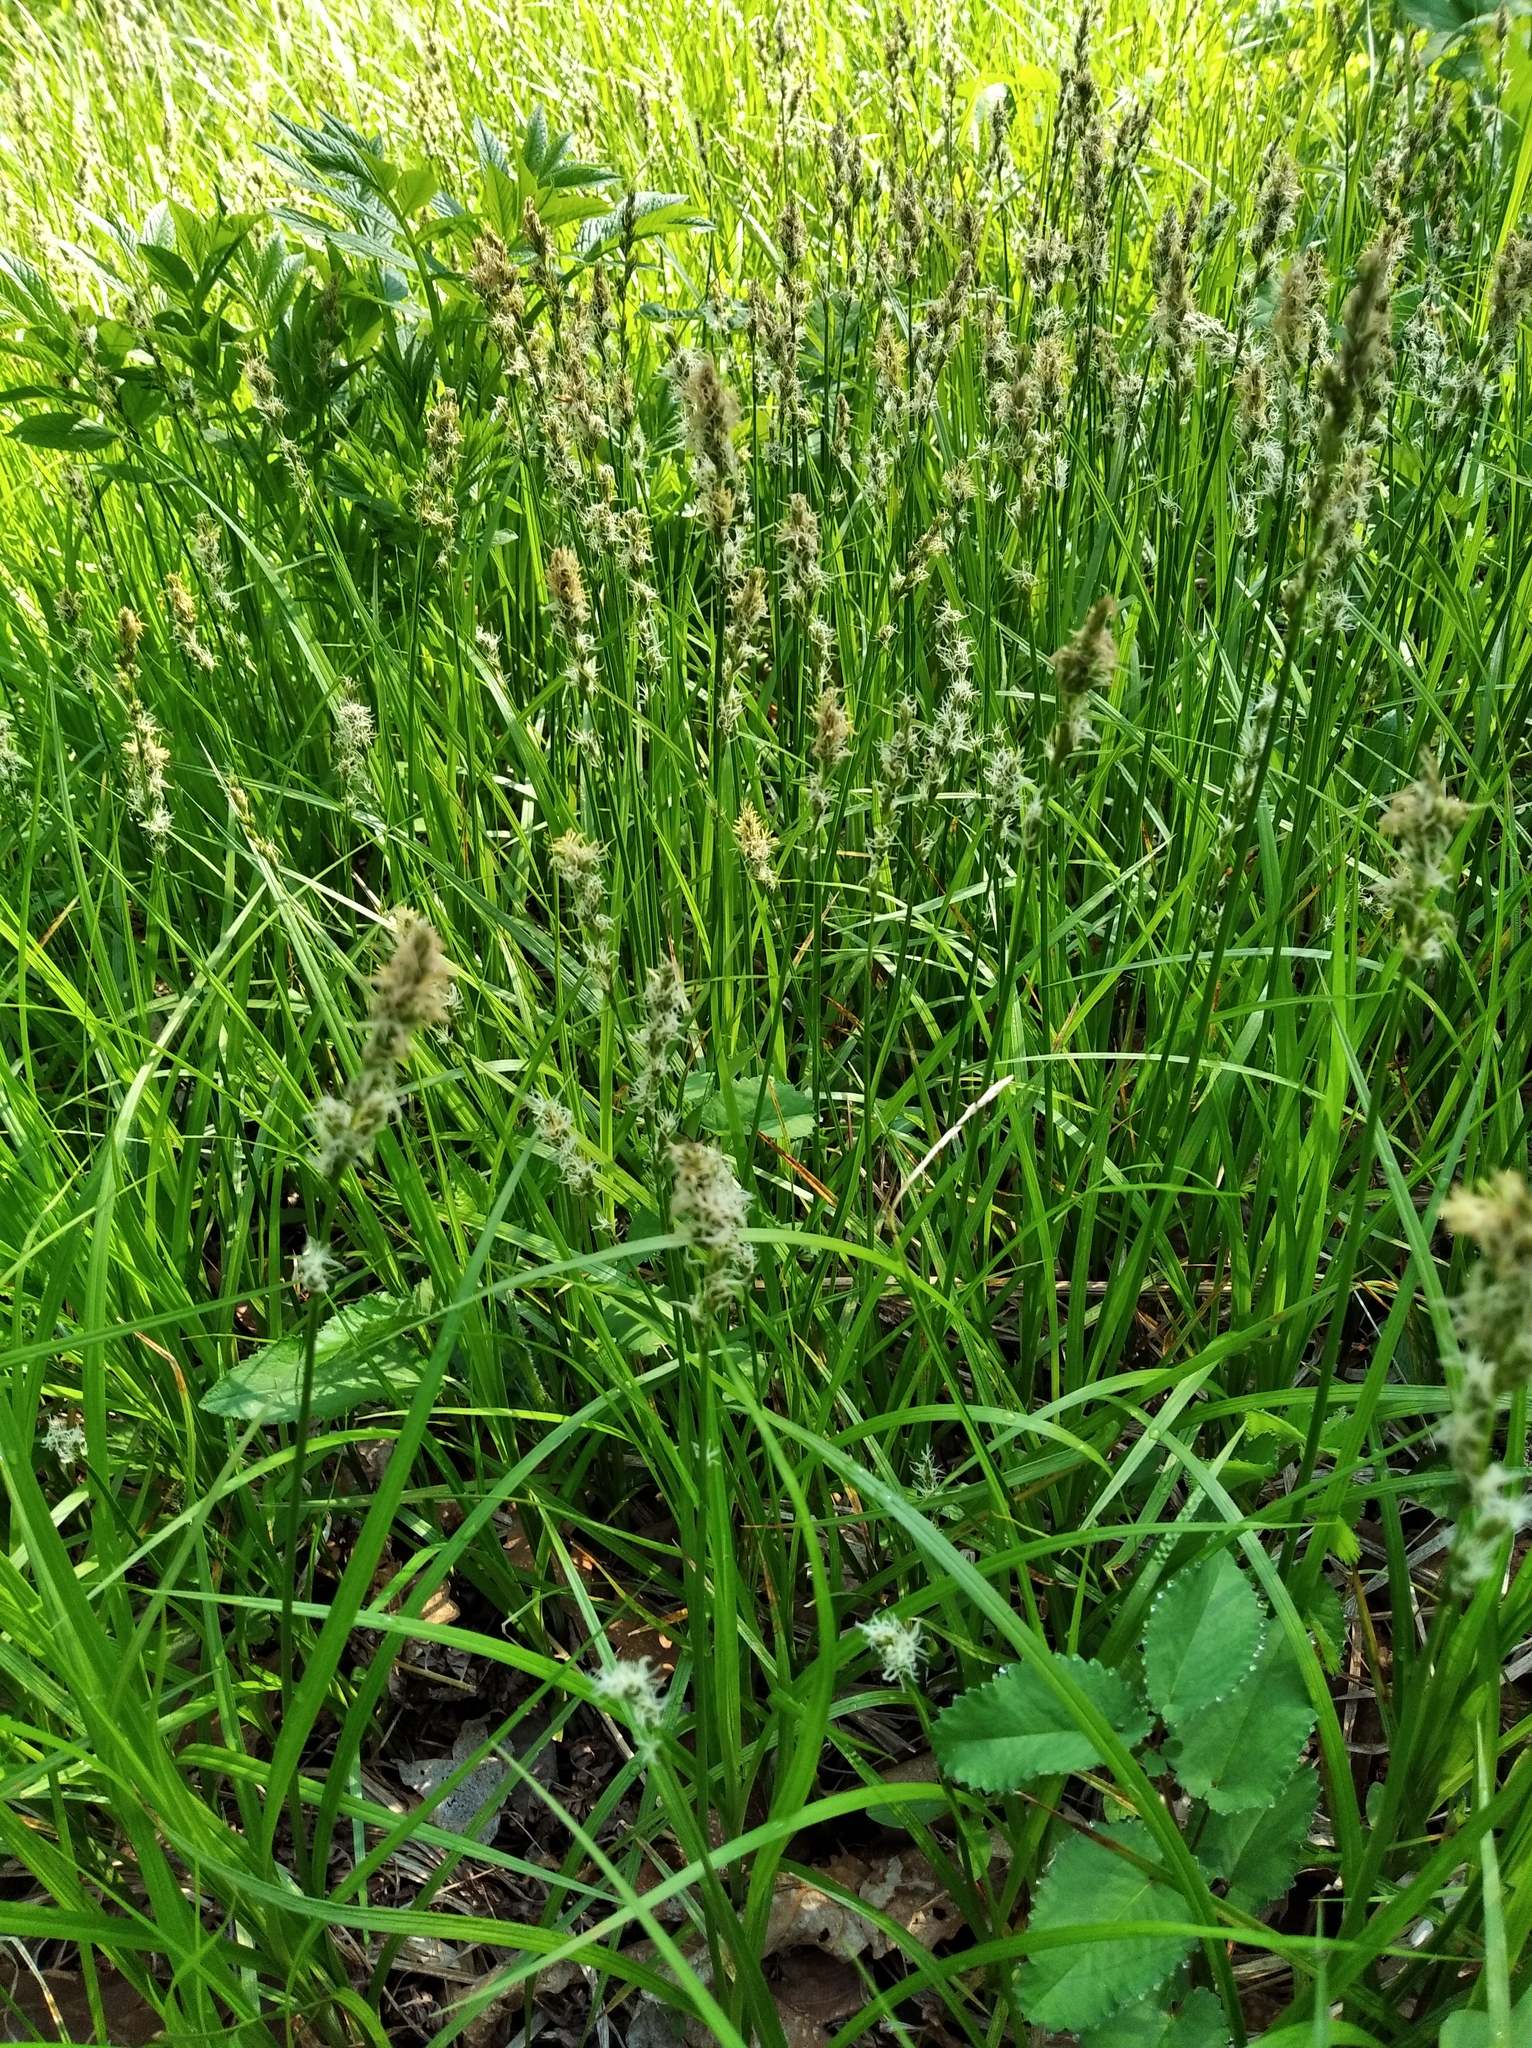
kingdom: Plantae
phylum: Tracheophyta
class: Liliopsida
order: Poales
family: Cyperaceae
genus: Carex
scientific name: Carex accrescens
